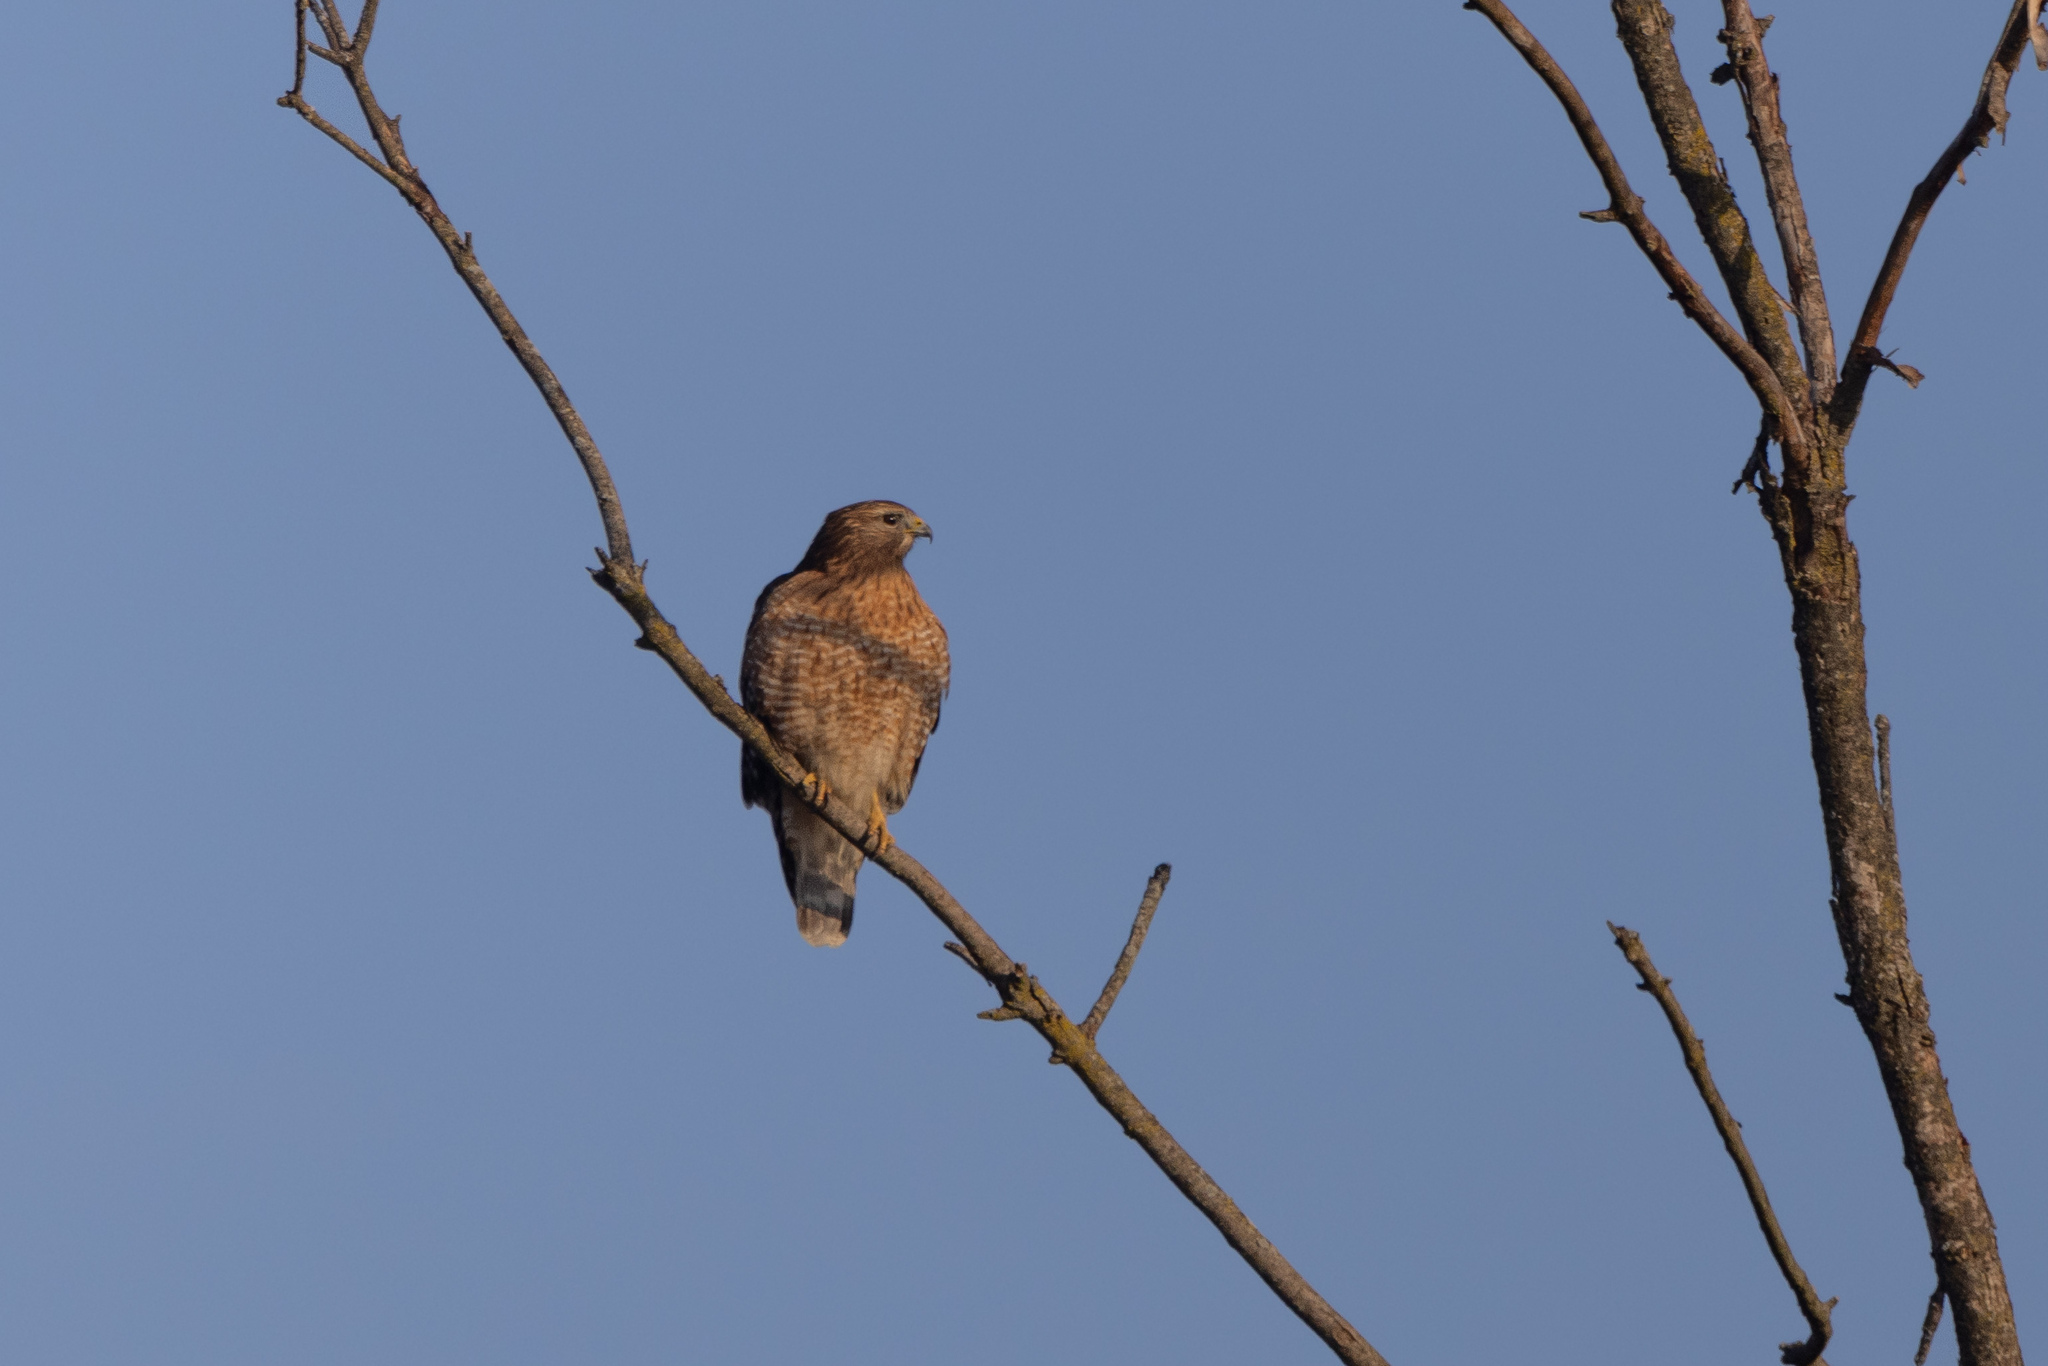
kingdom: Animalia
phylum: Chordata
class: Aves
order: Accipitriformes
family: Accipitridae
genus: Buteo
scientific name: Buteo lineatus
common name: Red-shouldered hawk
